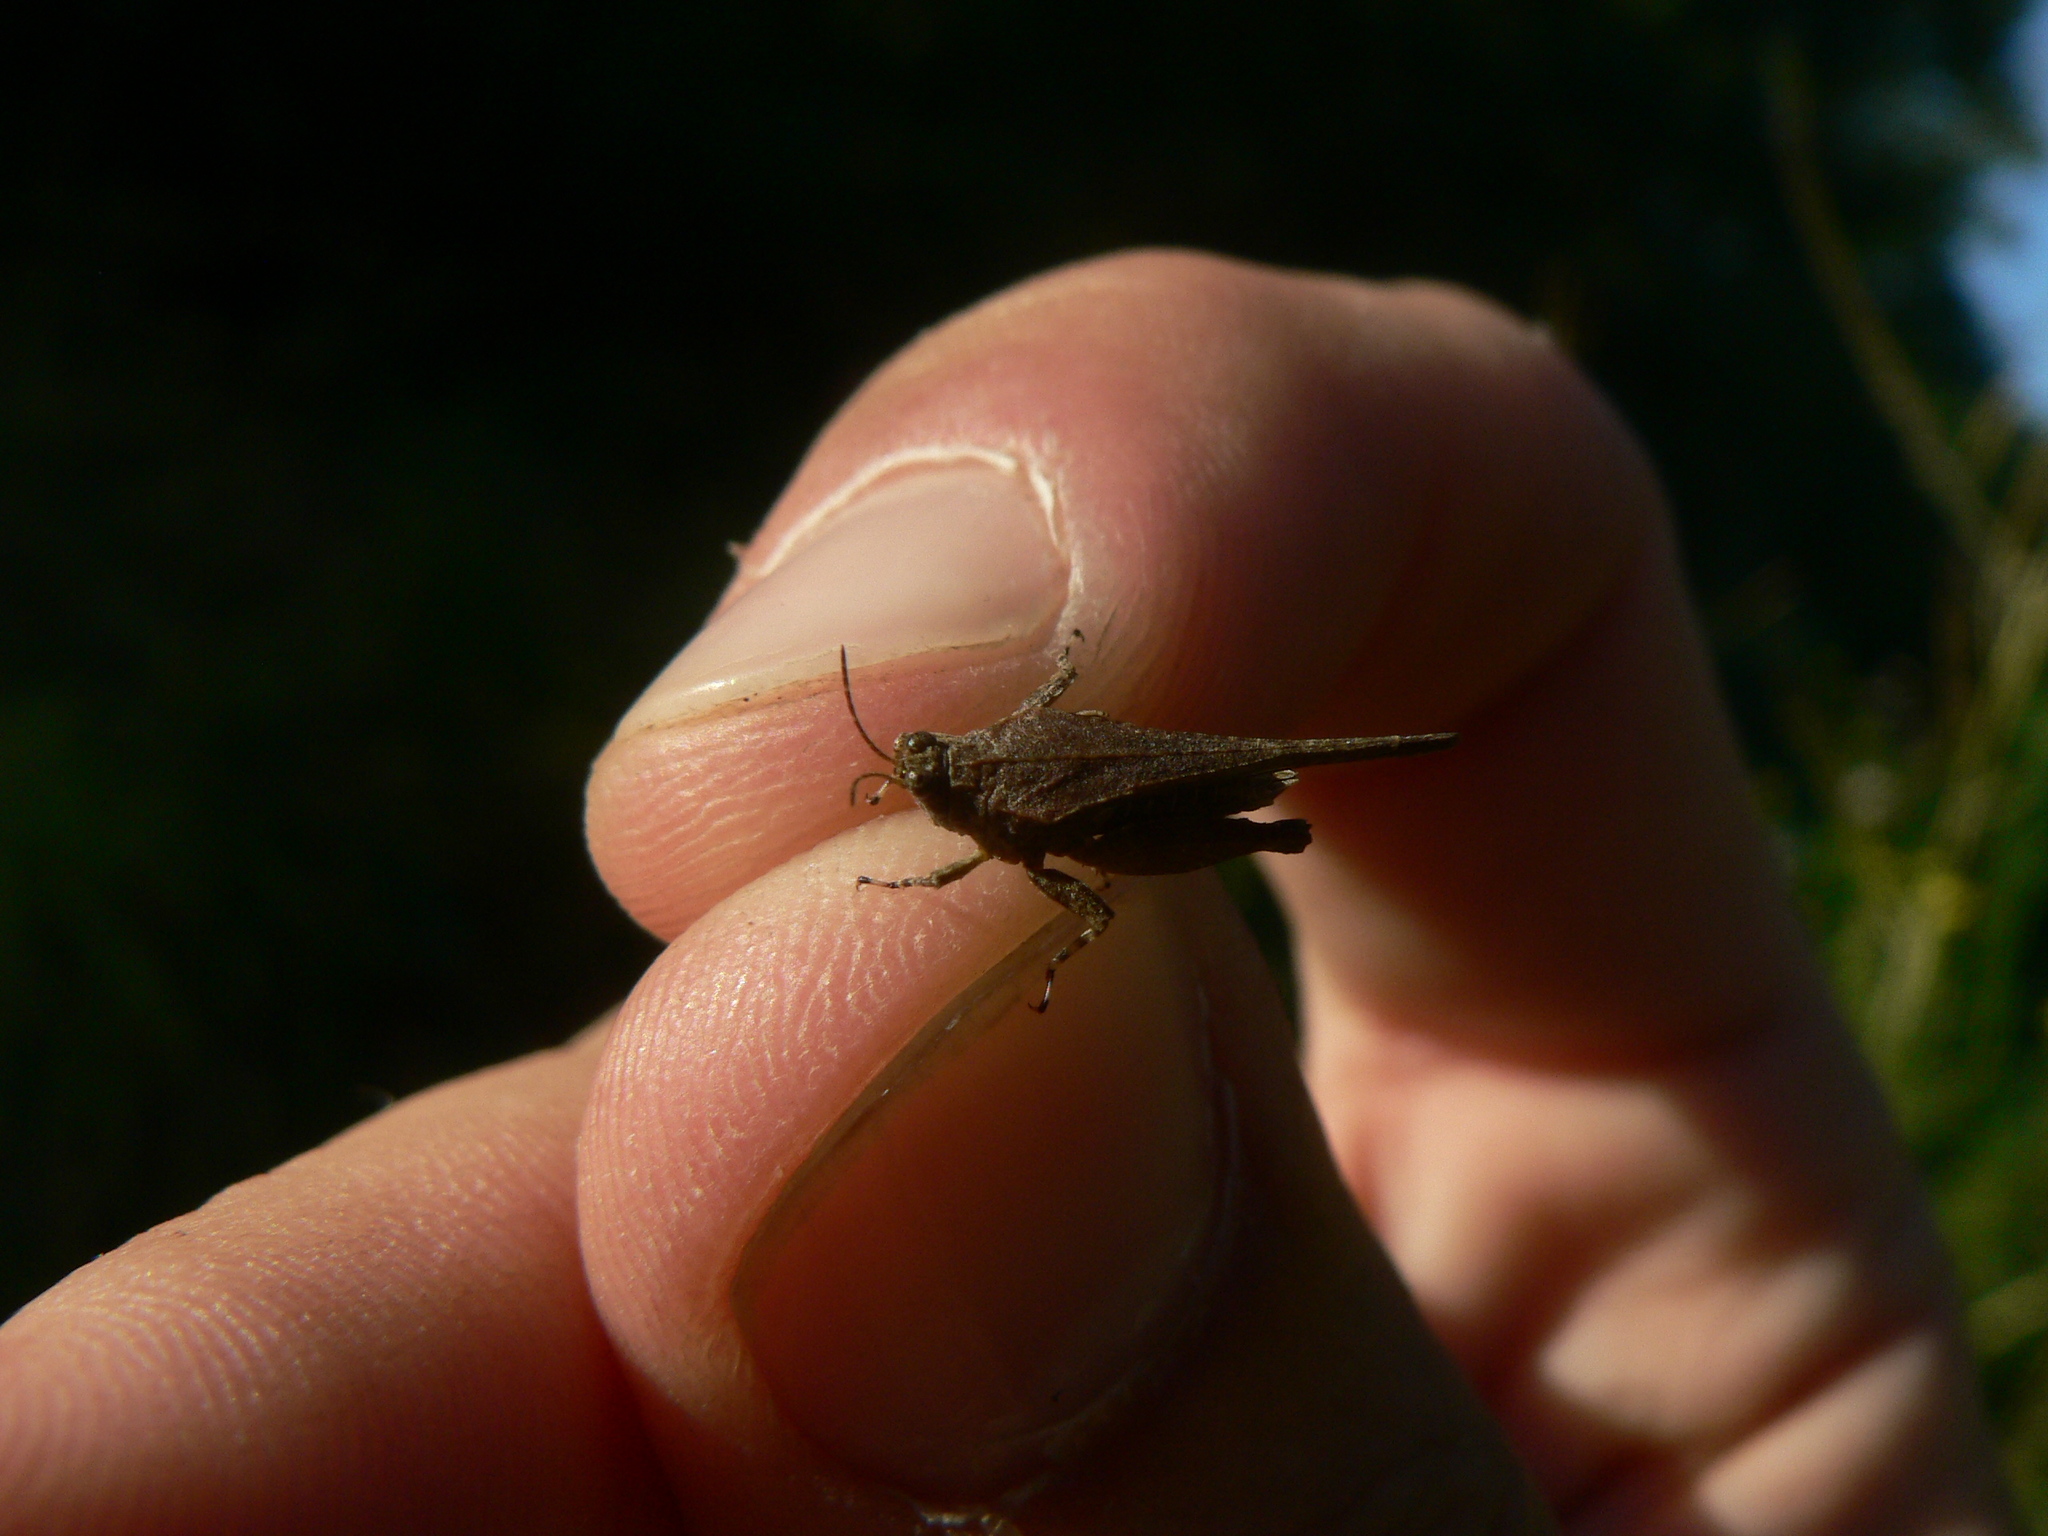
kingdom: Animalia
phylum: Arthropoda
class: Insecta
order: Orthoptera
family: Tetrigidae
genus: Paratettix
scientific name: Paratettix meridionalis
